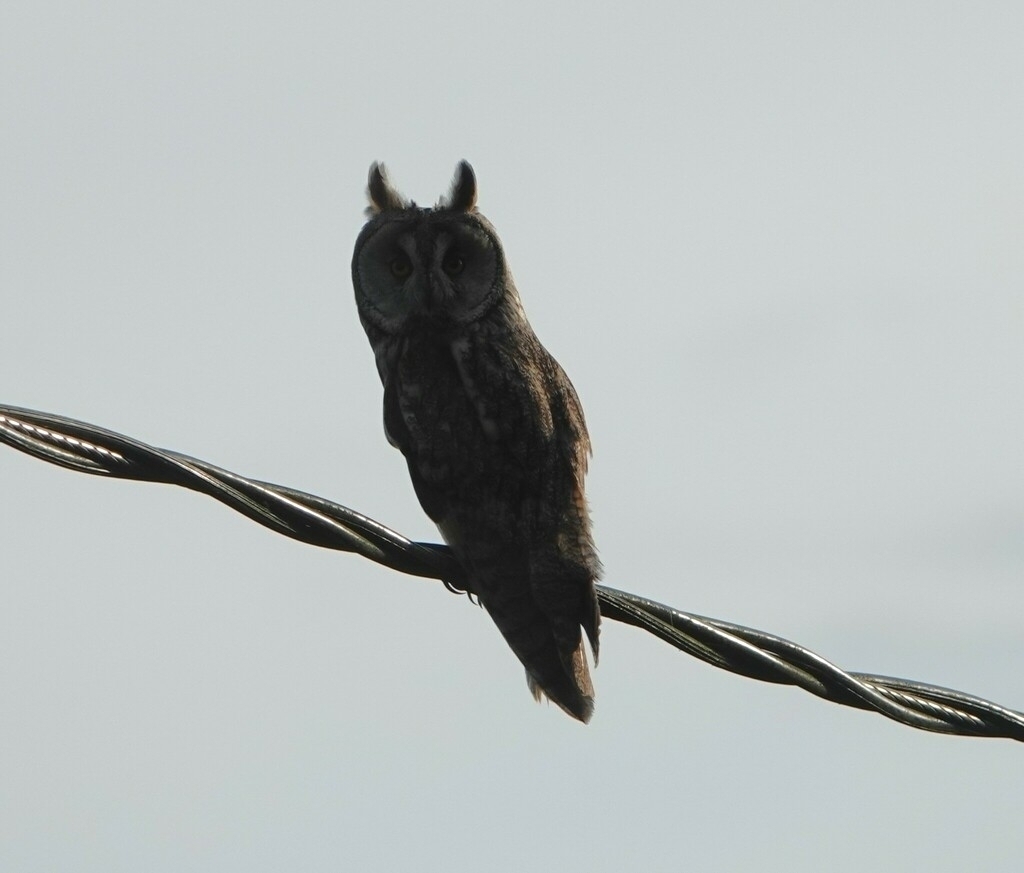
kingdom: Animalia
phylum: Chordata
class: Aves
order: Strigiformes
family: Strigidae
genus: Asio
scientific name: Asio otus
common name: Long-eared owl
